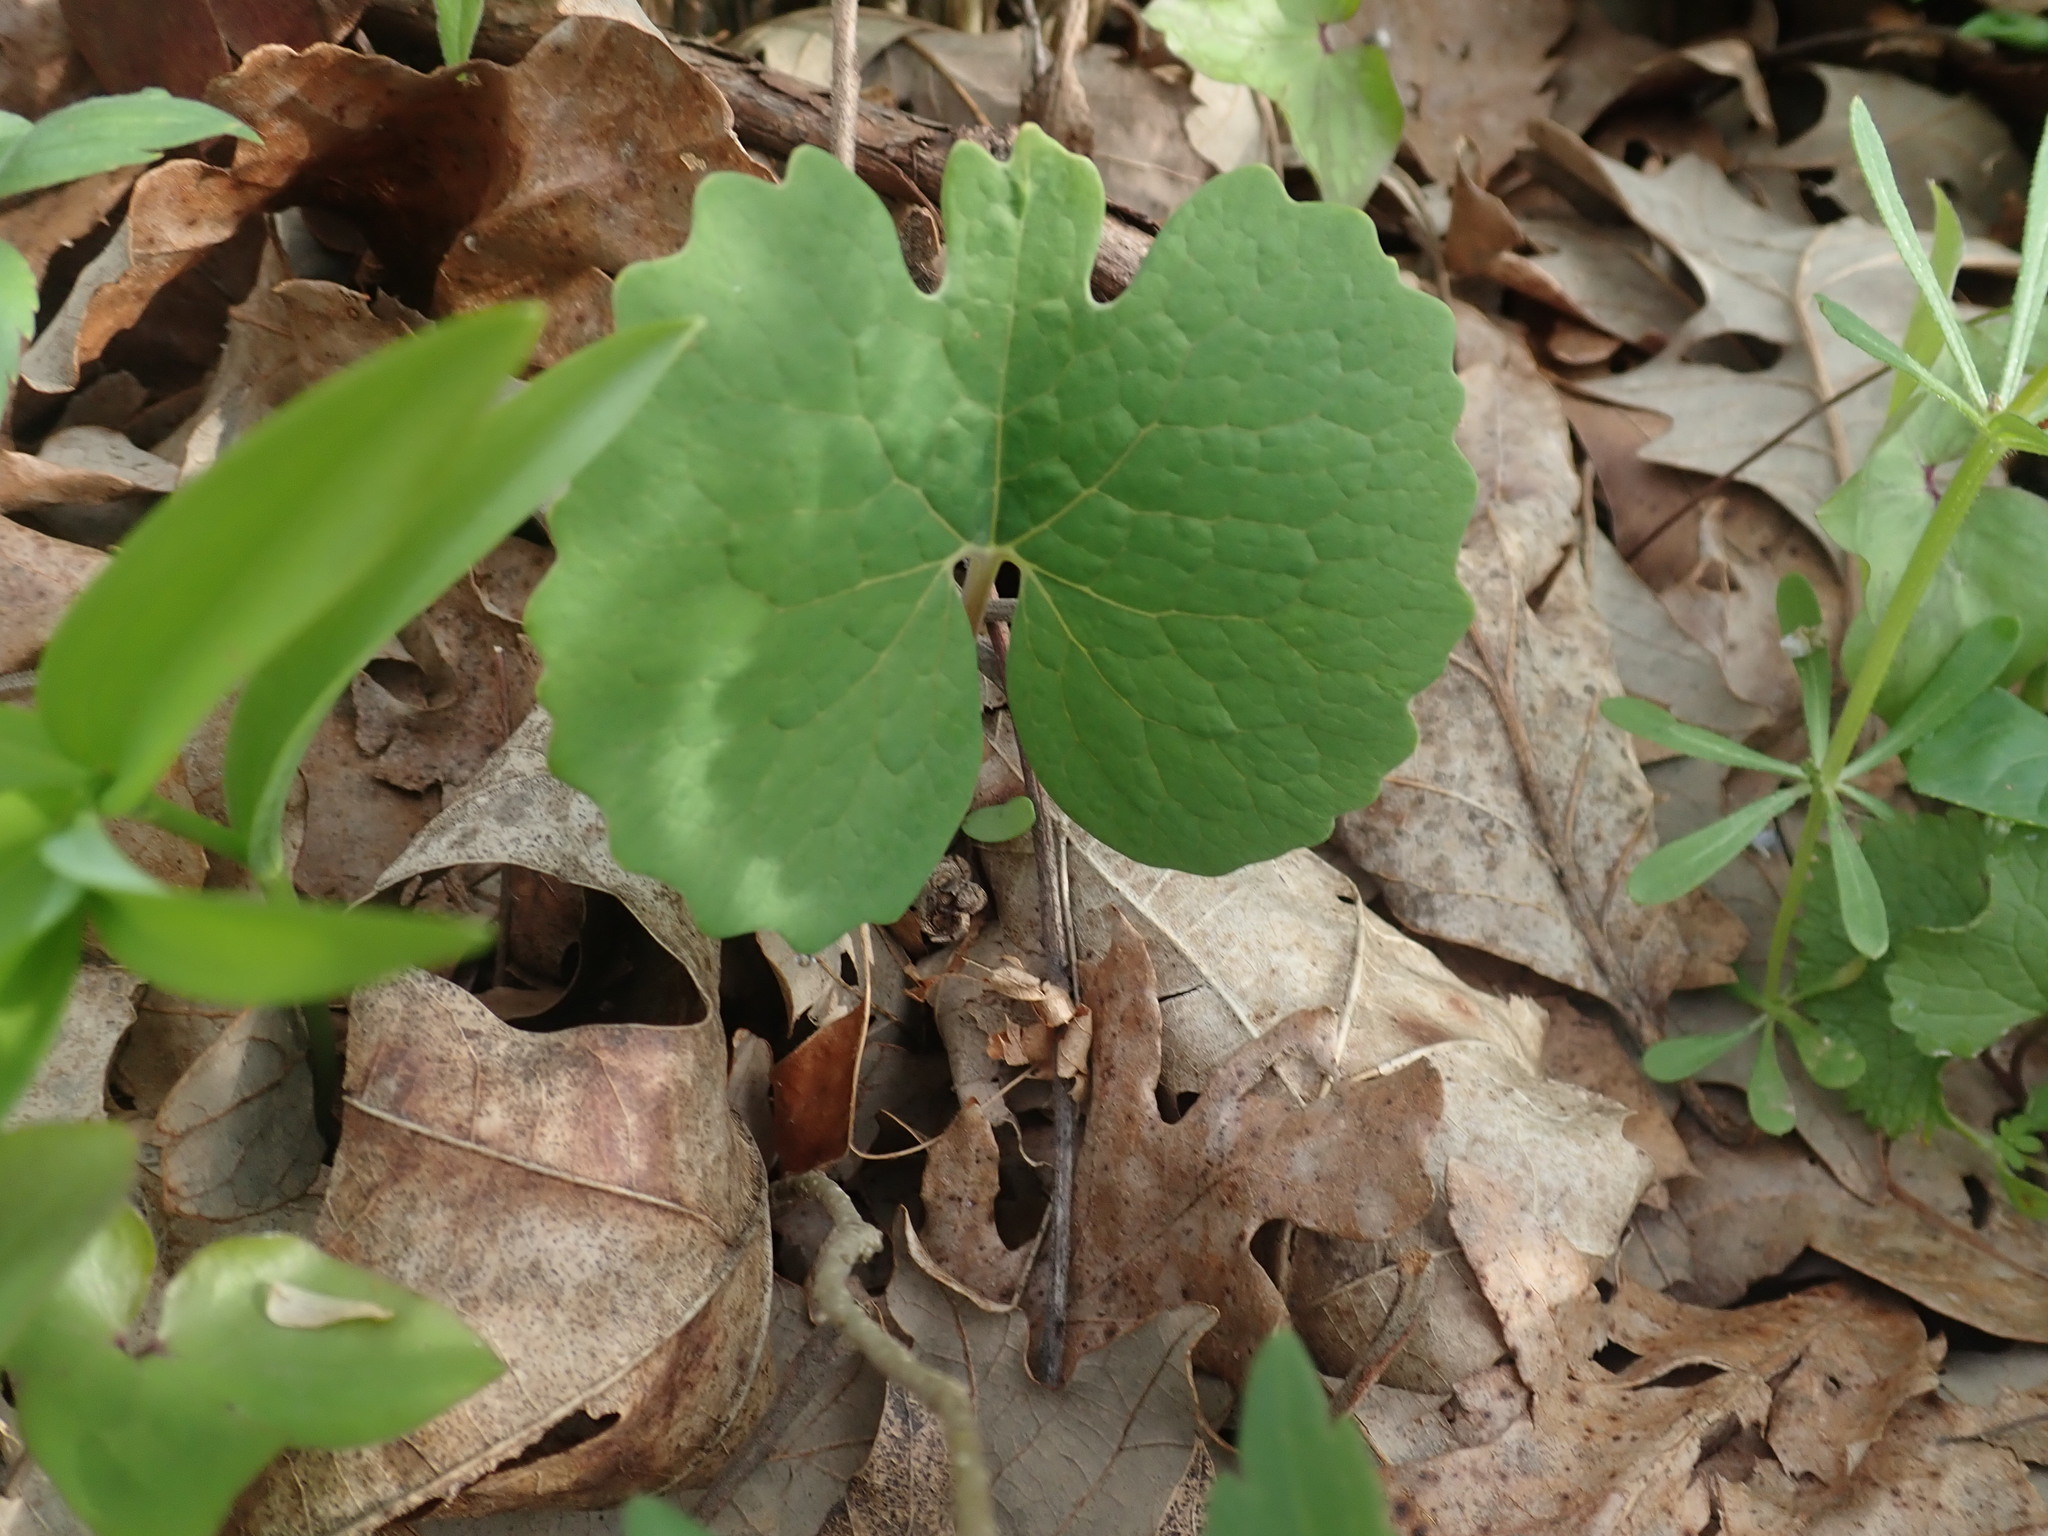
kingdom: Plantae
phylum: Tracheophyta
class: Magnoliopsida
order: Ranunculales
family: Papaveraceae
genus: Sanguinaria
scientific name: Sanguinaria canadensis
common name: Bloodroot
